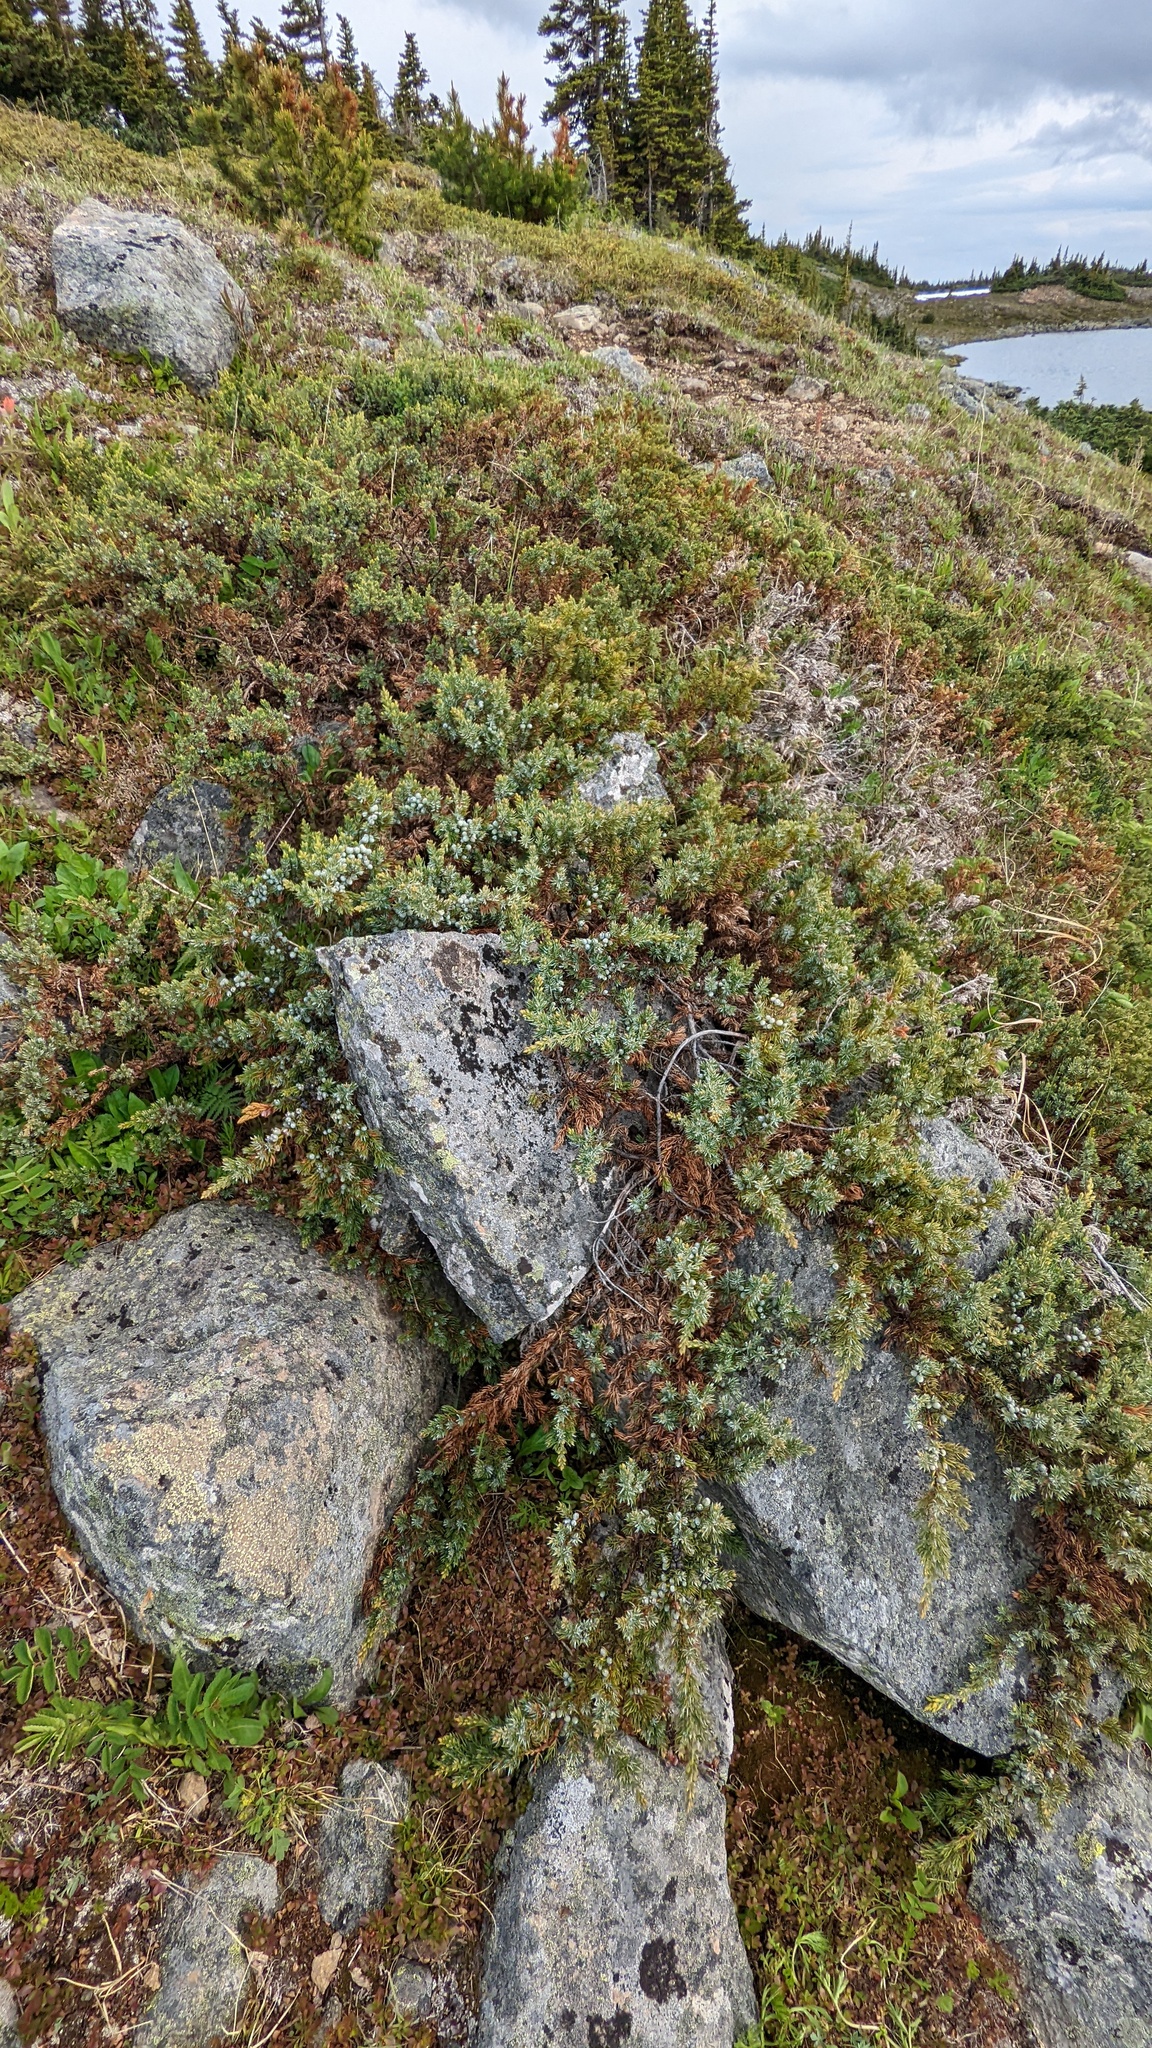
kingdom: Plantae
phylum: Tracheophyta
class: Pinopsida
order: Pinales
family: Cupressaceae
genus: Juniperus
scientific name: Juniperus communis
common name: Common juniper
